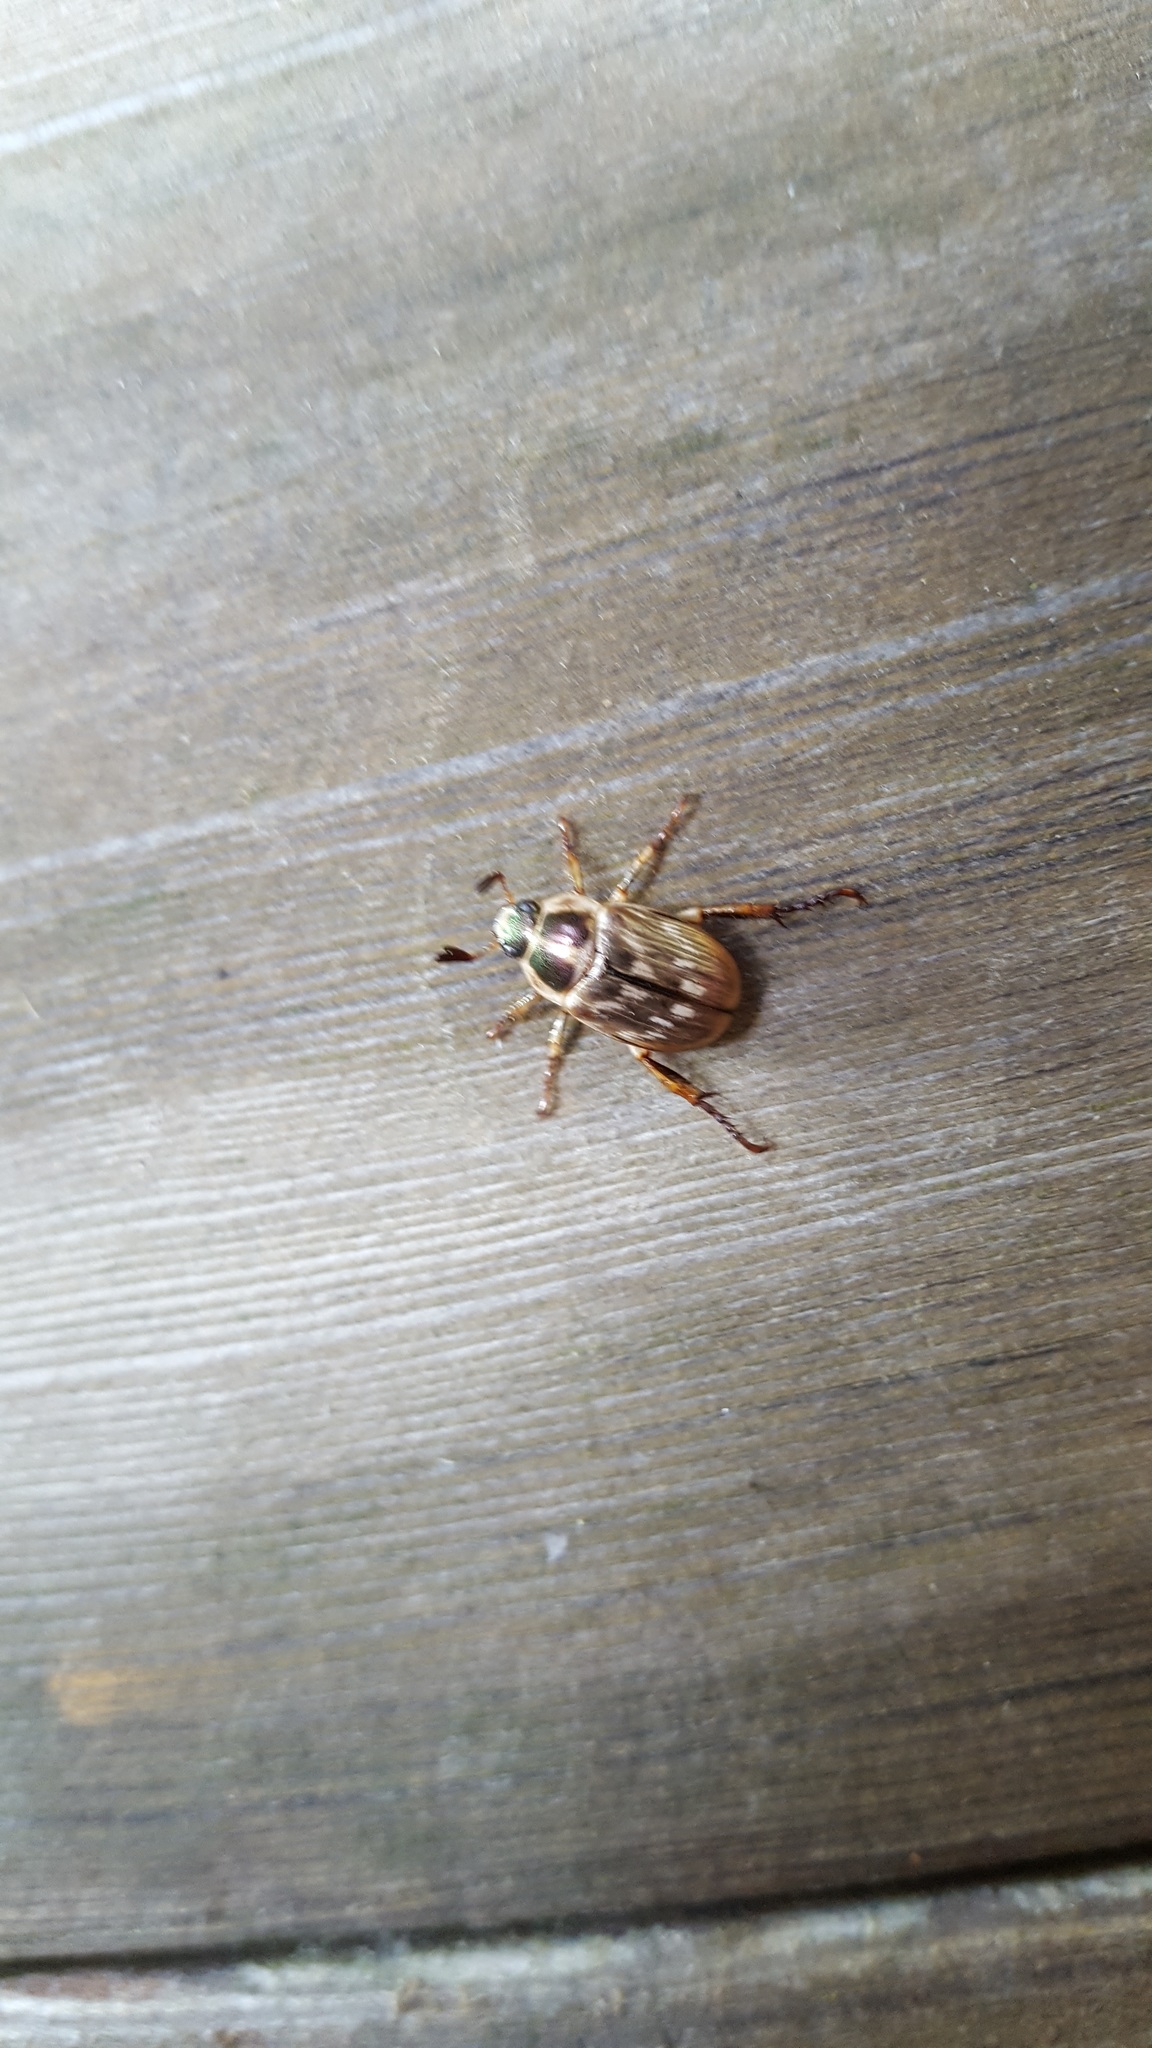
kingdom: Animalia
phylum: Arthropoda
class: Insecta
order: Coleoptera
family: Scarabaeidae
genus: Exomala
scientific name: Exomala orientalis
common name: Oriental beetle
